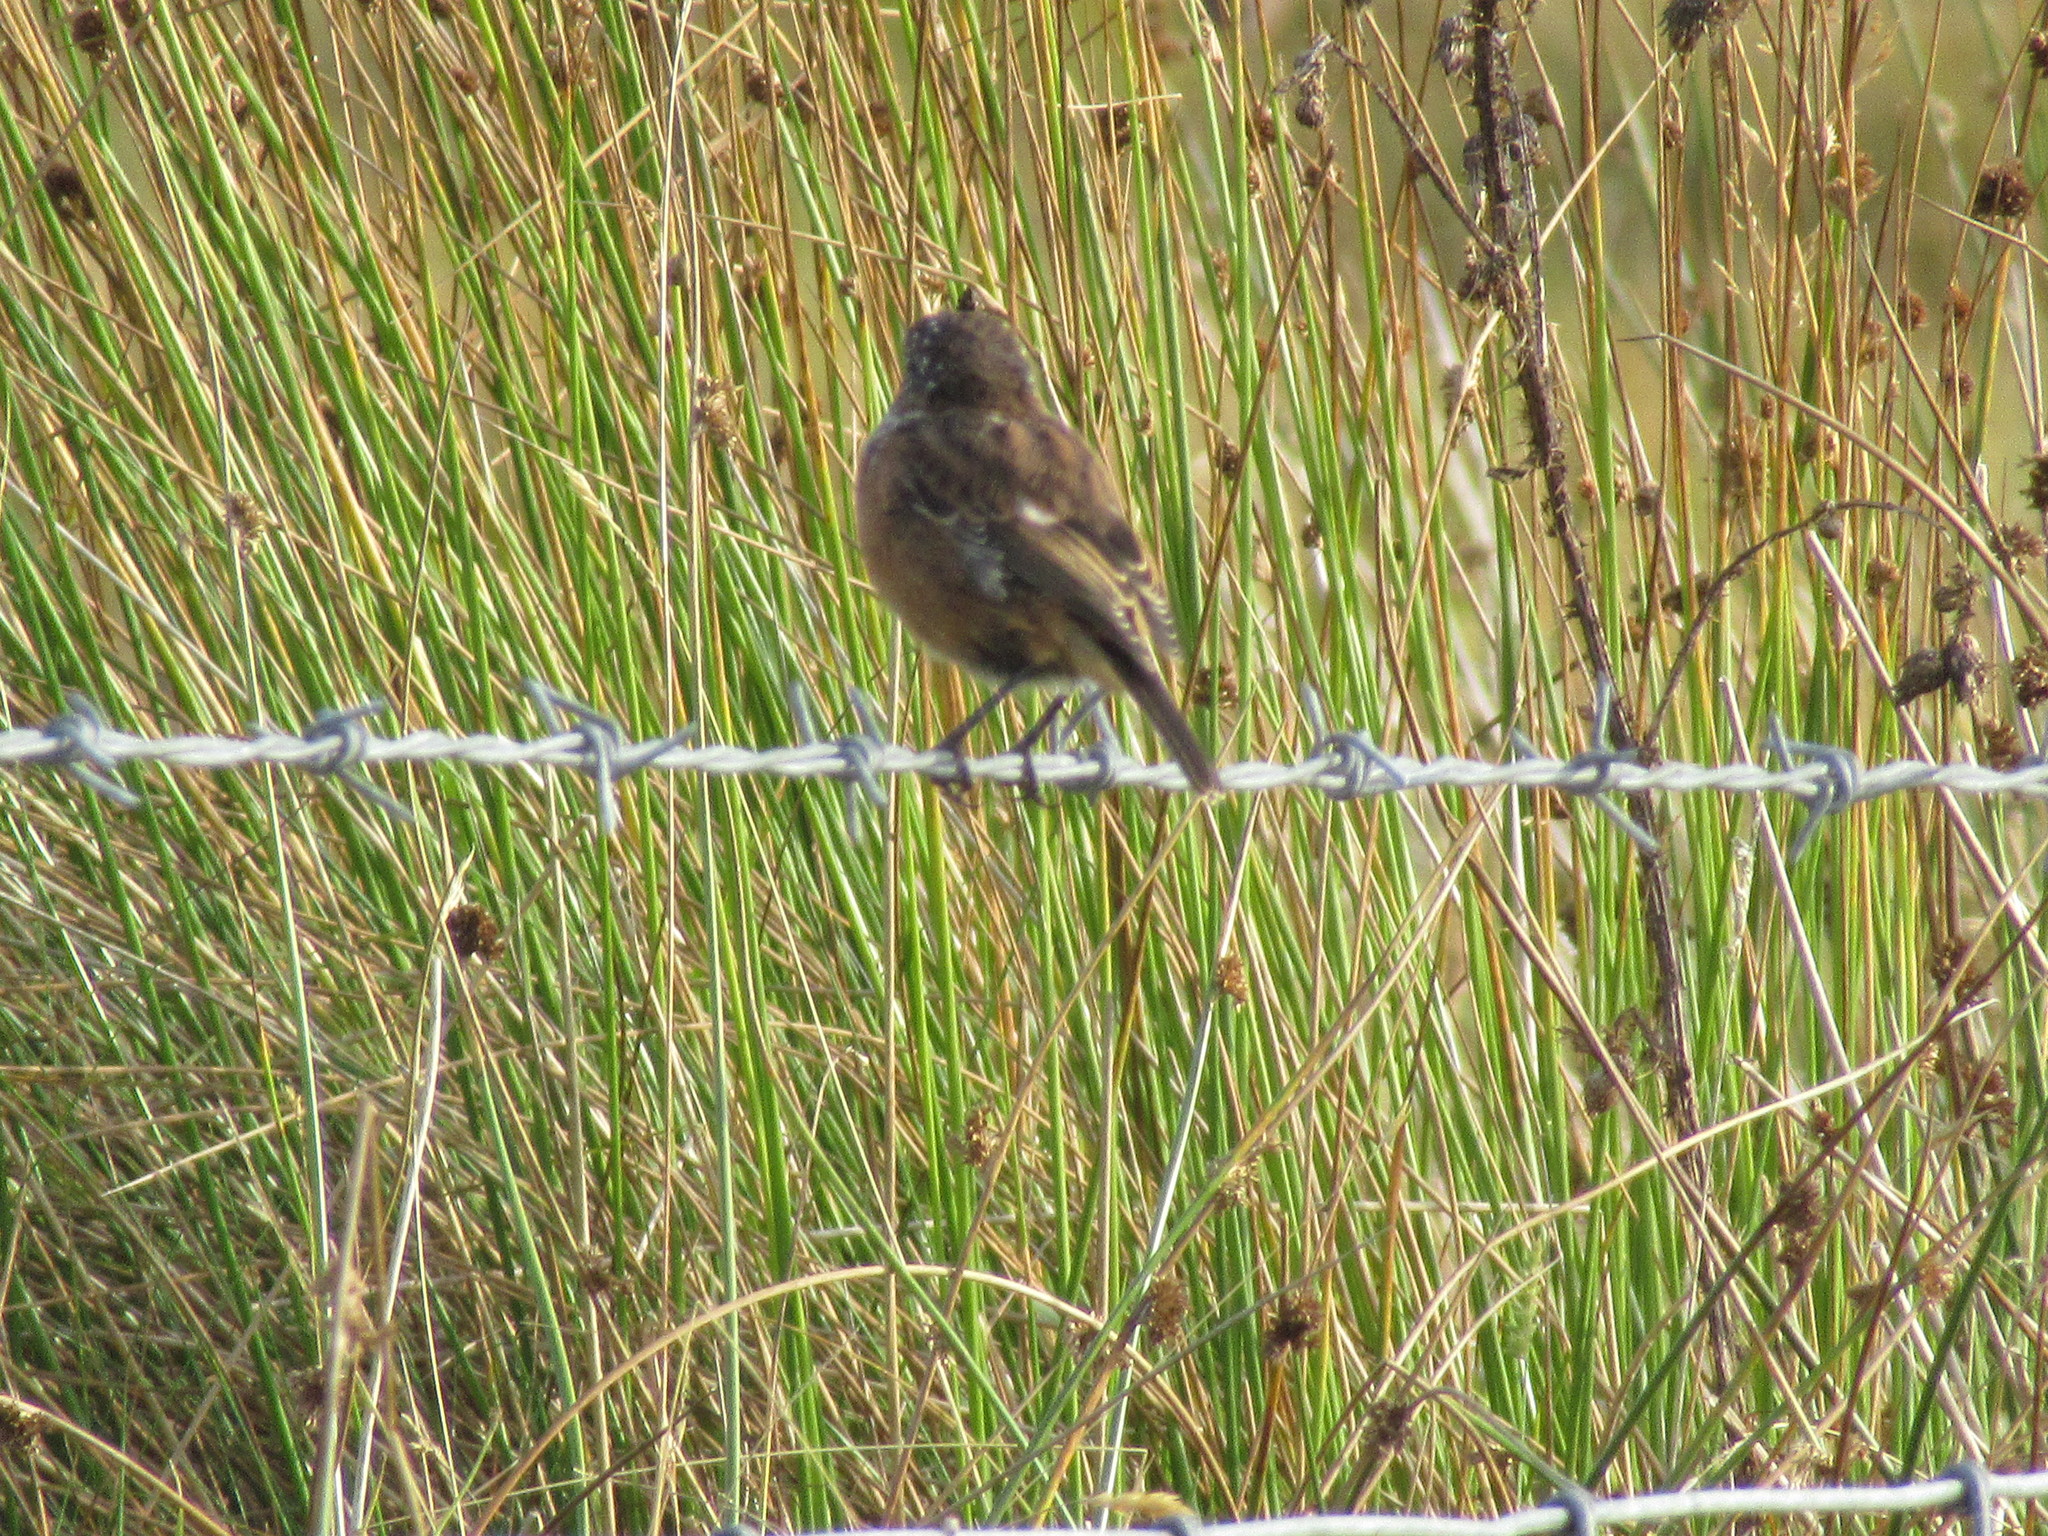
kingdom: Animalia
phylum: Chordata
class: Aves
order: Passeriformes
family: Muscicapidae
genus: Saxicola
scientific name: Saxicola rubicola
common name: European stonechat
